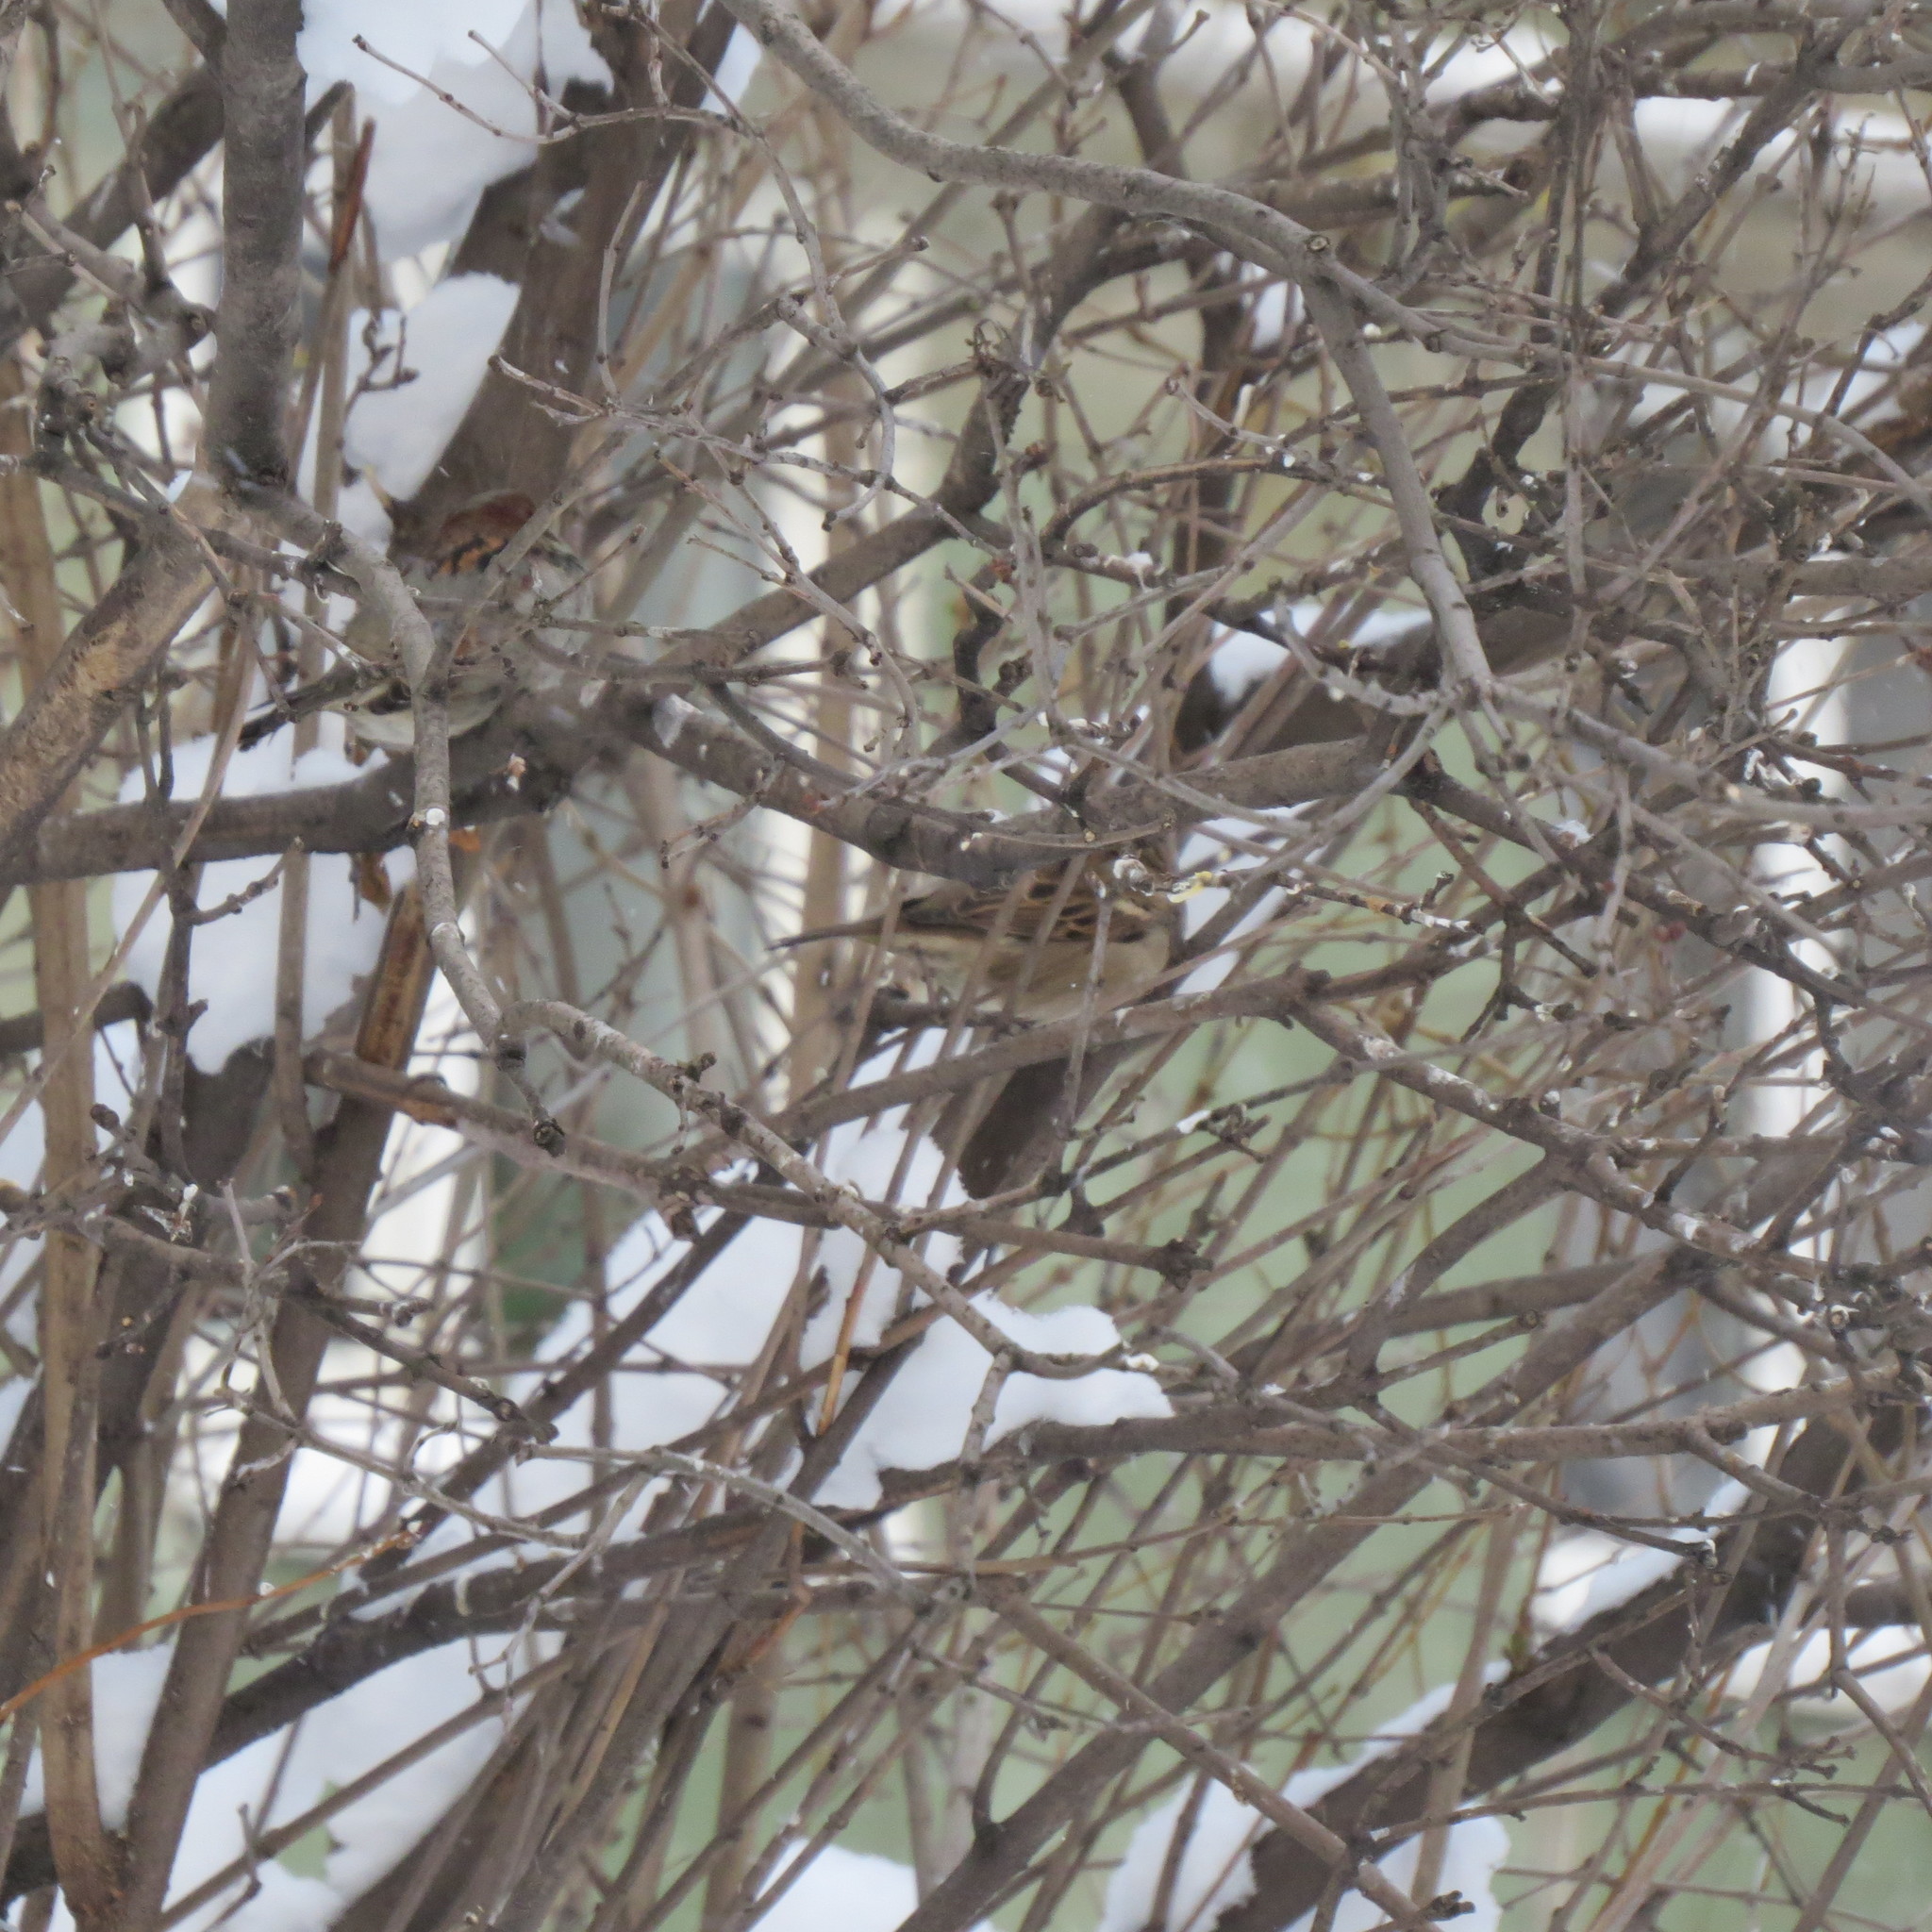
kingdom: Animalia
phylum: Chordata
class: Aves
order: Passeriformes
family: Passeridae
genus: Passer
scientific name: Passer domesticus
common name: House sparrow
